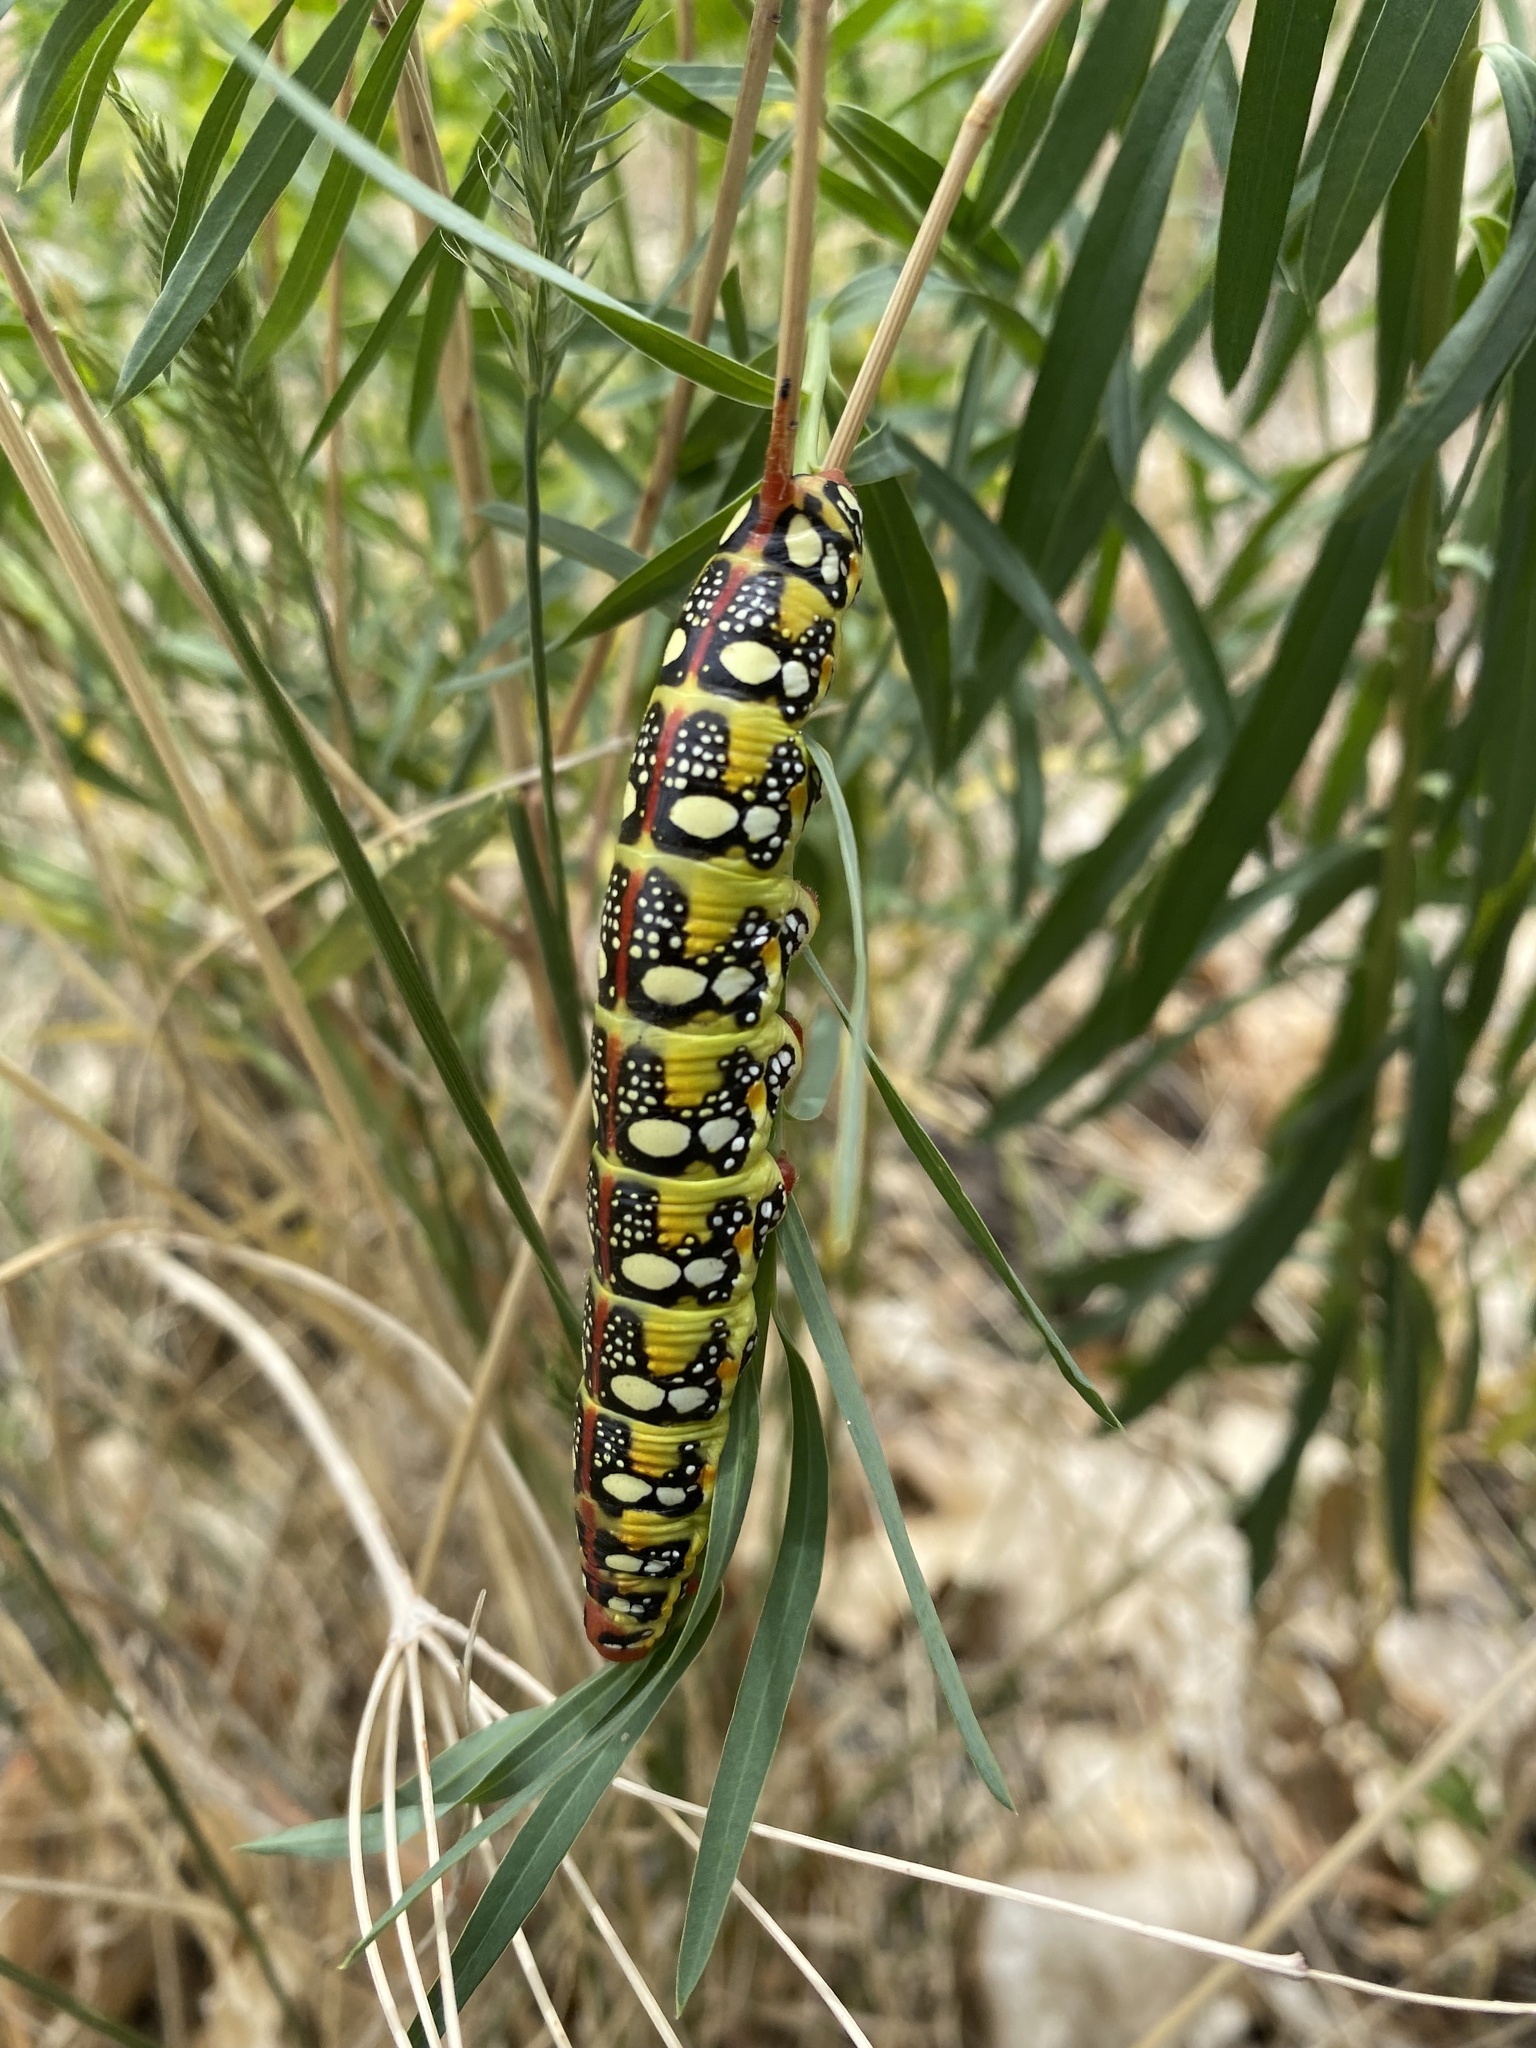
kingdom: Animalia
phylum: Arthropoda
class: Insecta
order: Lepidoptera
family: Sphingidae
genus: Hyles
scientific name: Hyles euphorbiae
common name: Spurge hawk-moth
